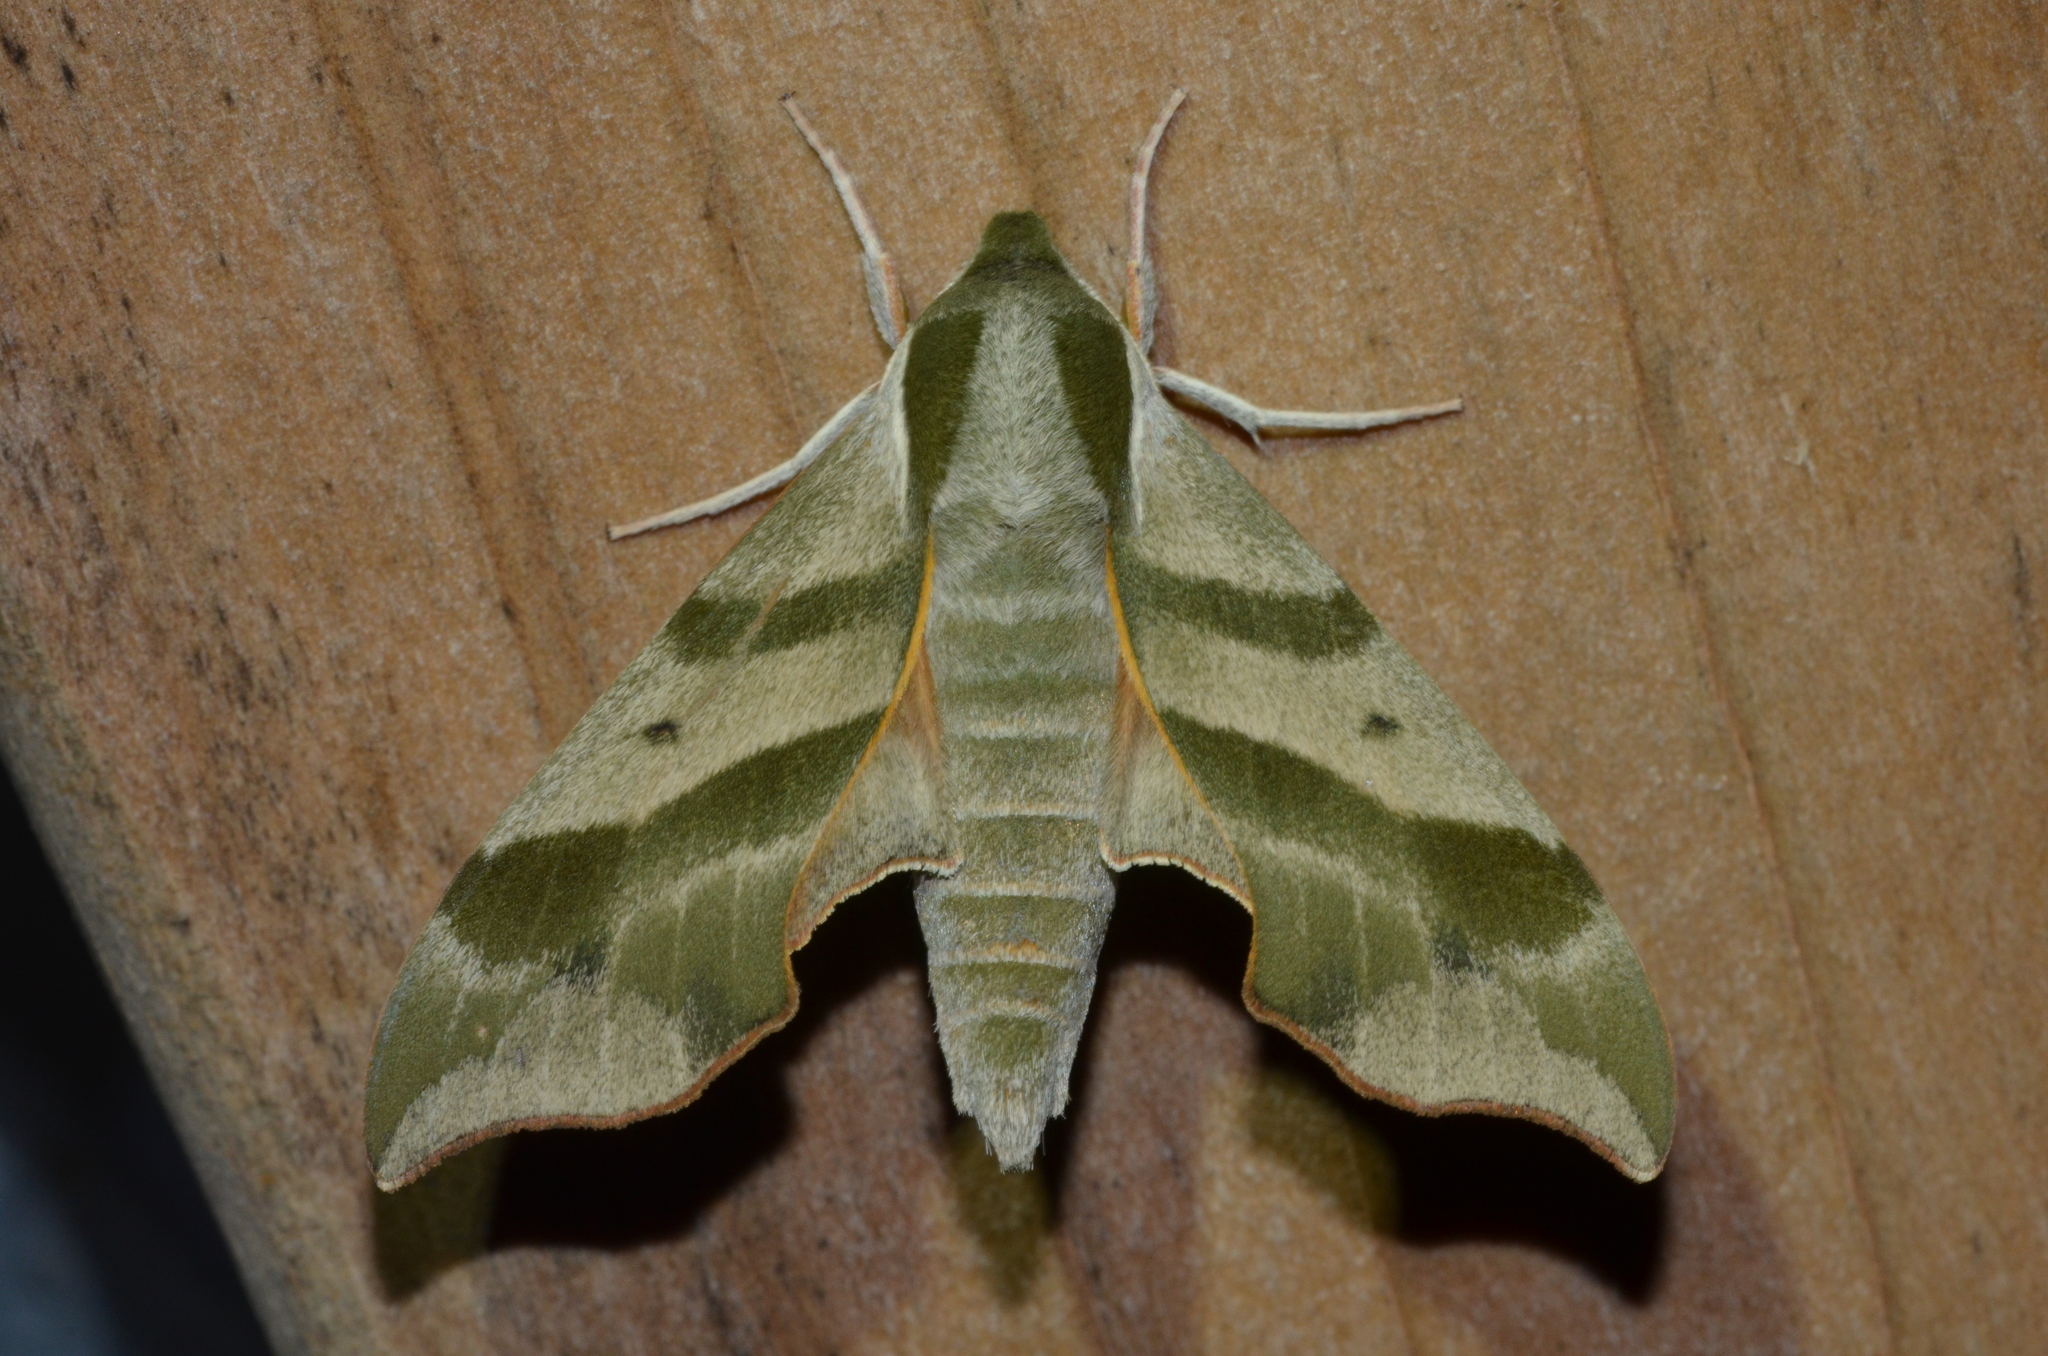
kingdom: Animalia
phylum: Arthropoda
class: Insecta
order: Lepidoptera
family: Sphingidae
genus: Darapsa
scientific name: Darapsa myron
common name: Hog sphinx
